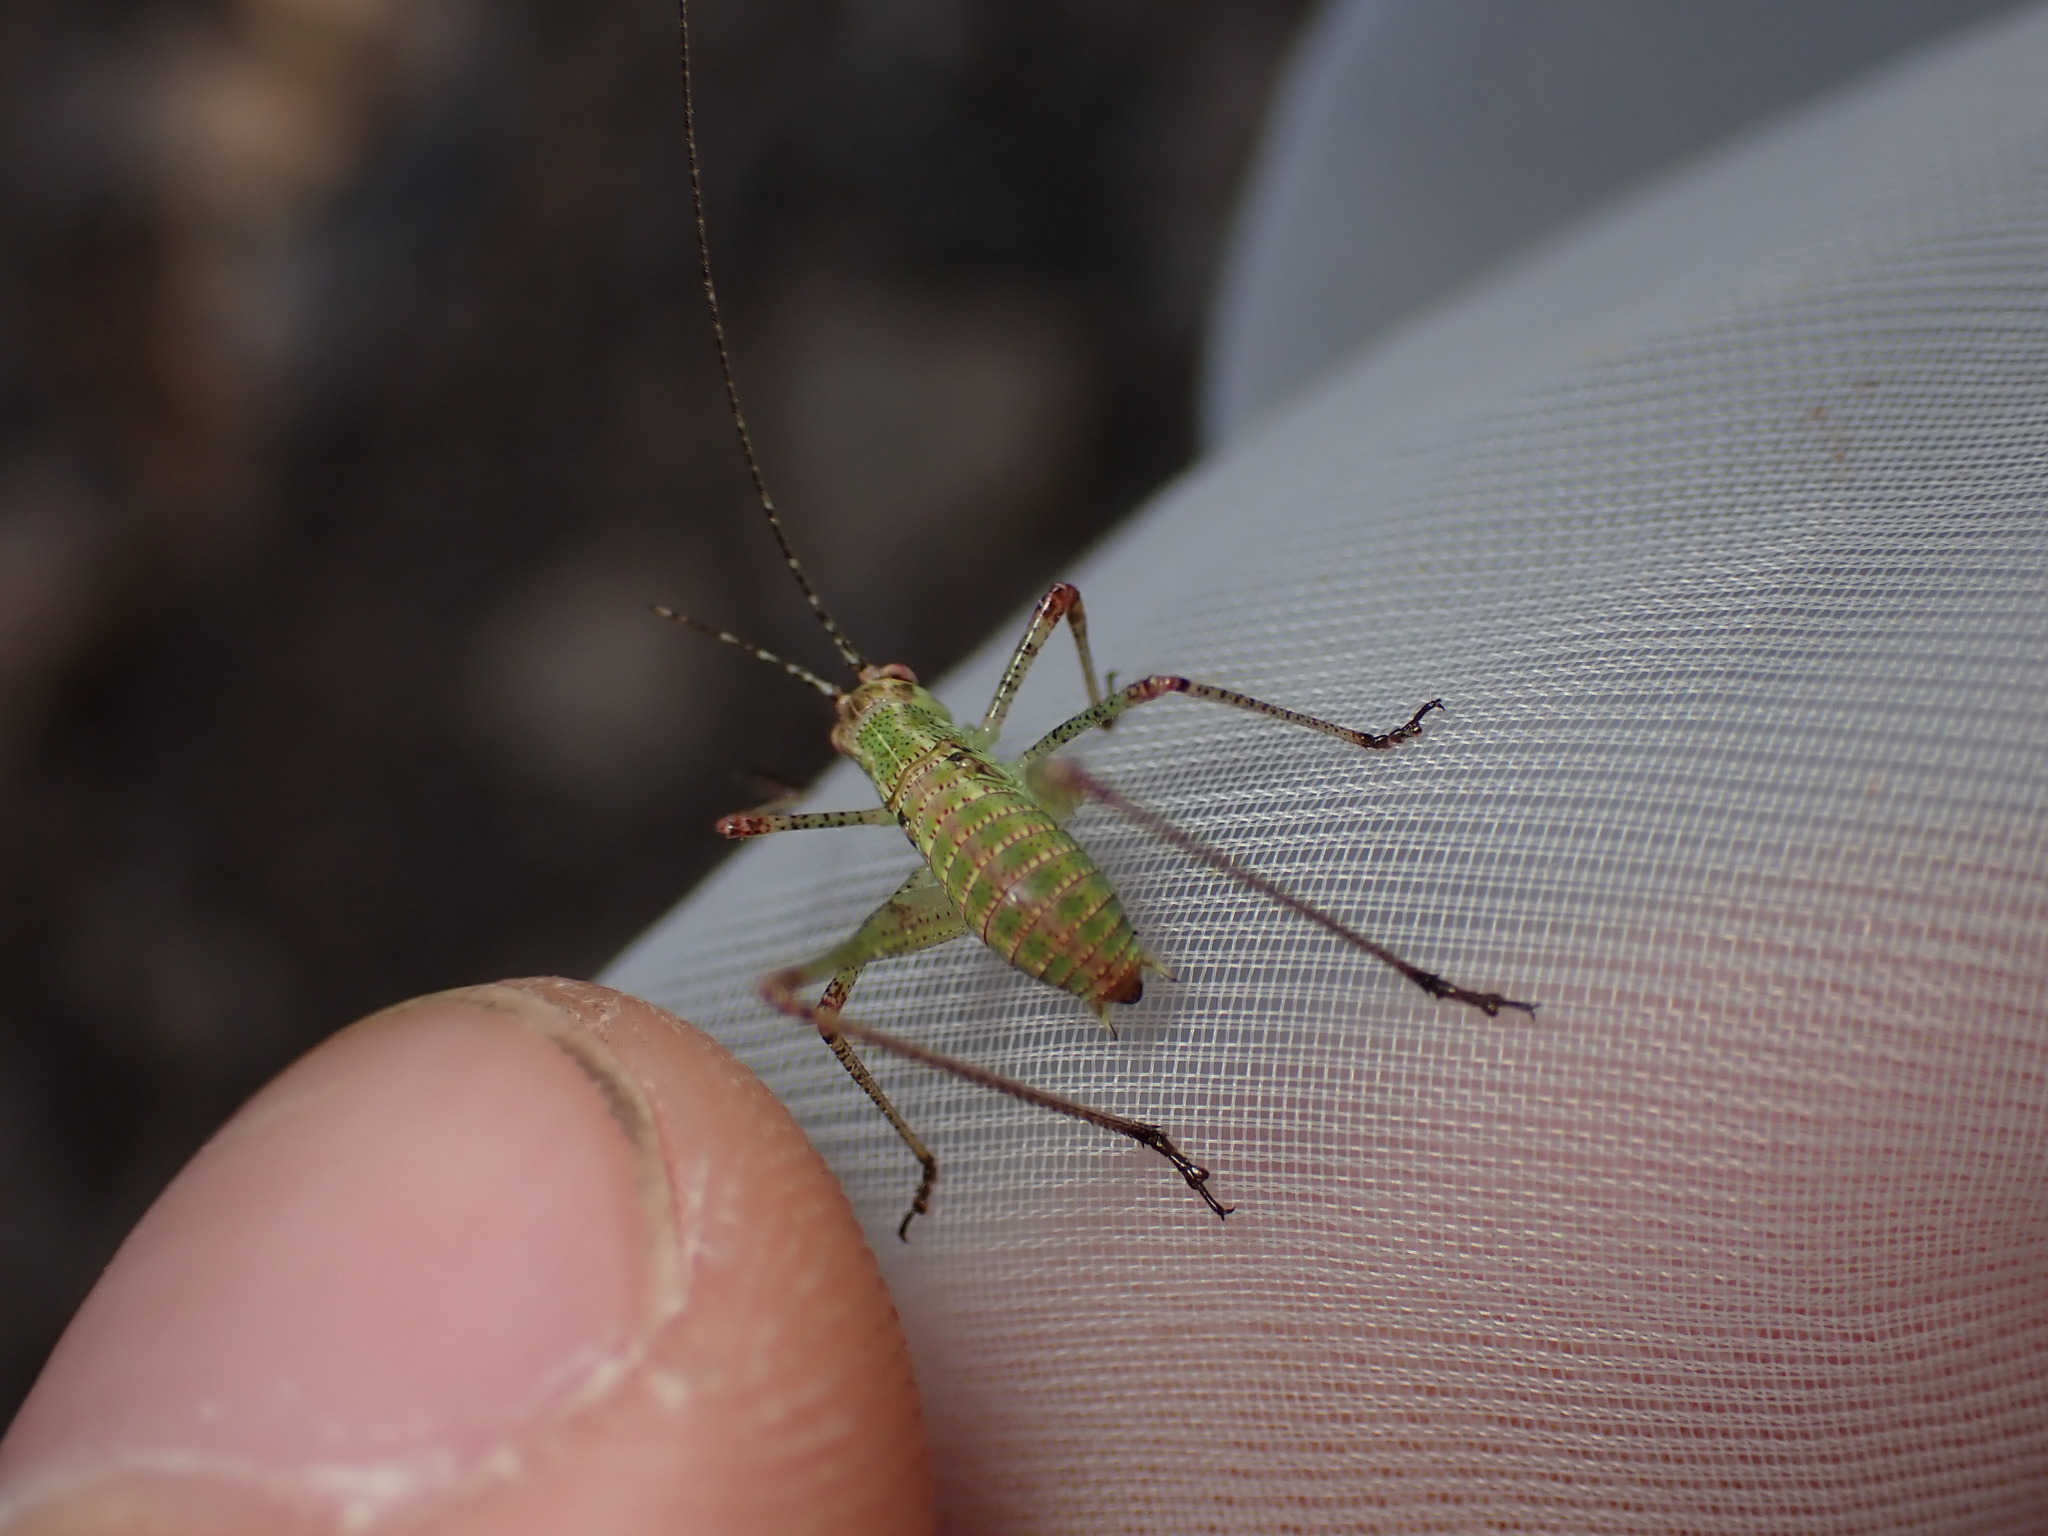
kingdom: Animalia
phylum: Arthropoda
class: Insecta
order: Orthoptera
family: Tettigoniidae
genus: Tylopsis
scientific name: Tylopsis lilifolia
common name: Lily bush-cricket
